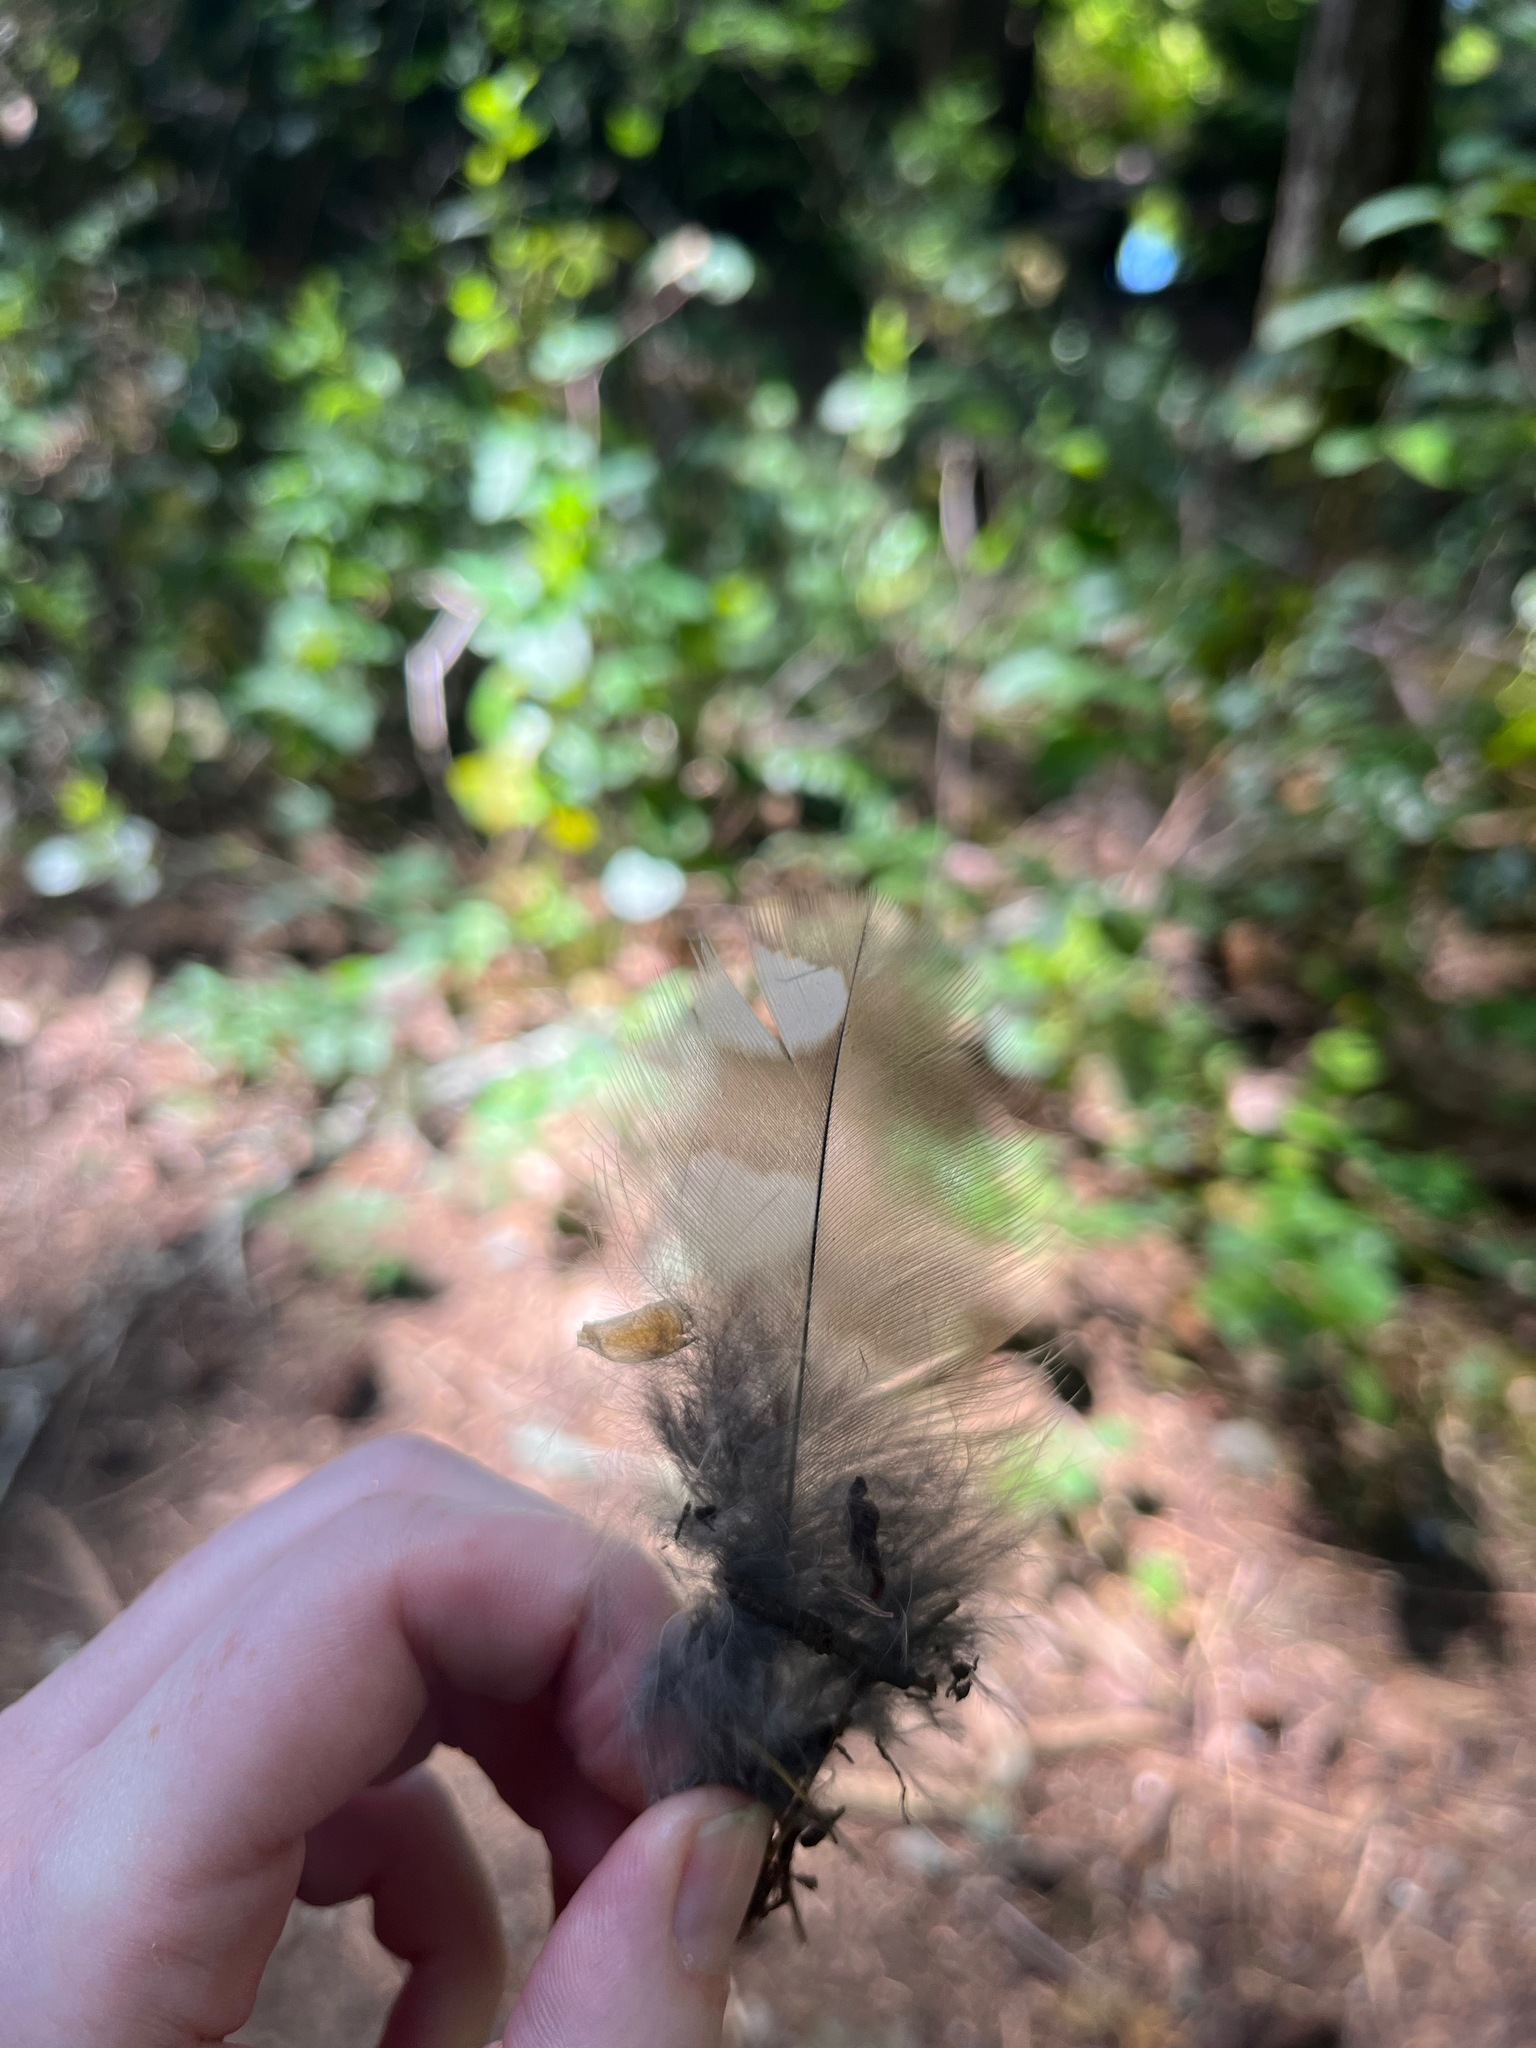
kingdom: Animalia
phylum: Chordata
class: Aves
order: Strigiformes
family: Strigidae
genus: Strix
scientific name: Strix varia
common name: Barred owl
